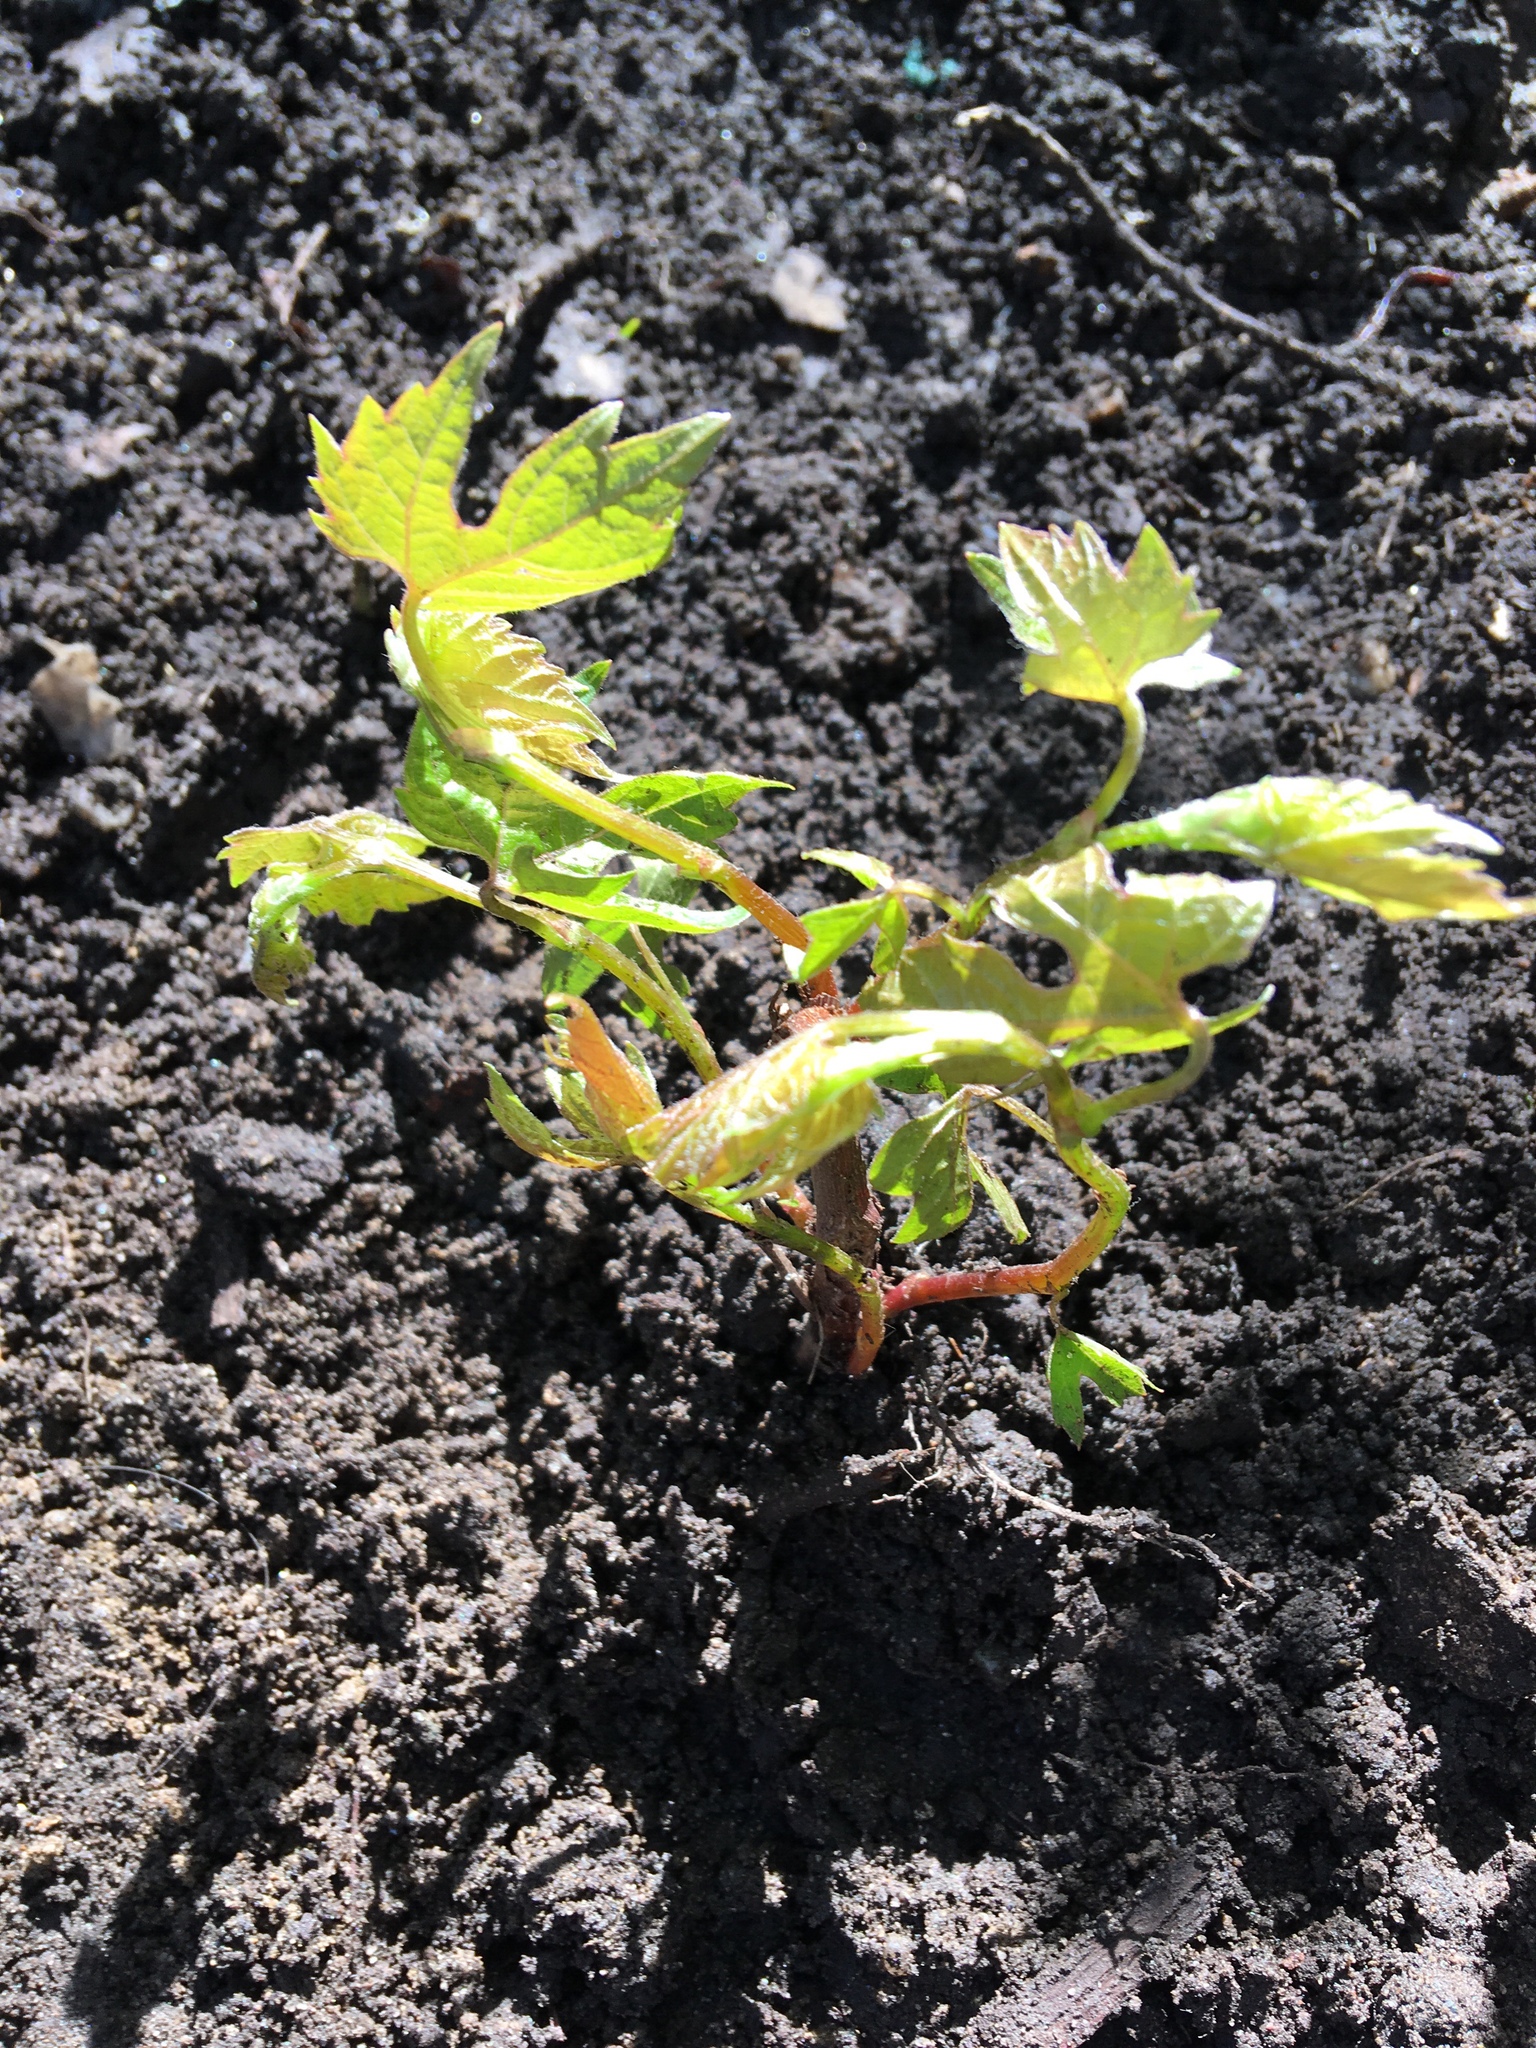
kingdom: Plantae
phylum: Tracheophyta
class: Magnoliopsida
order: Vitales
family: Vitaceae
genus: Vitis
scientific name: Vitis riparia
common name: Frost grape
